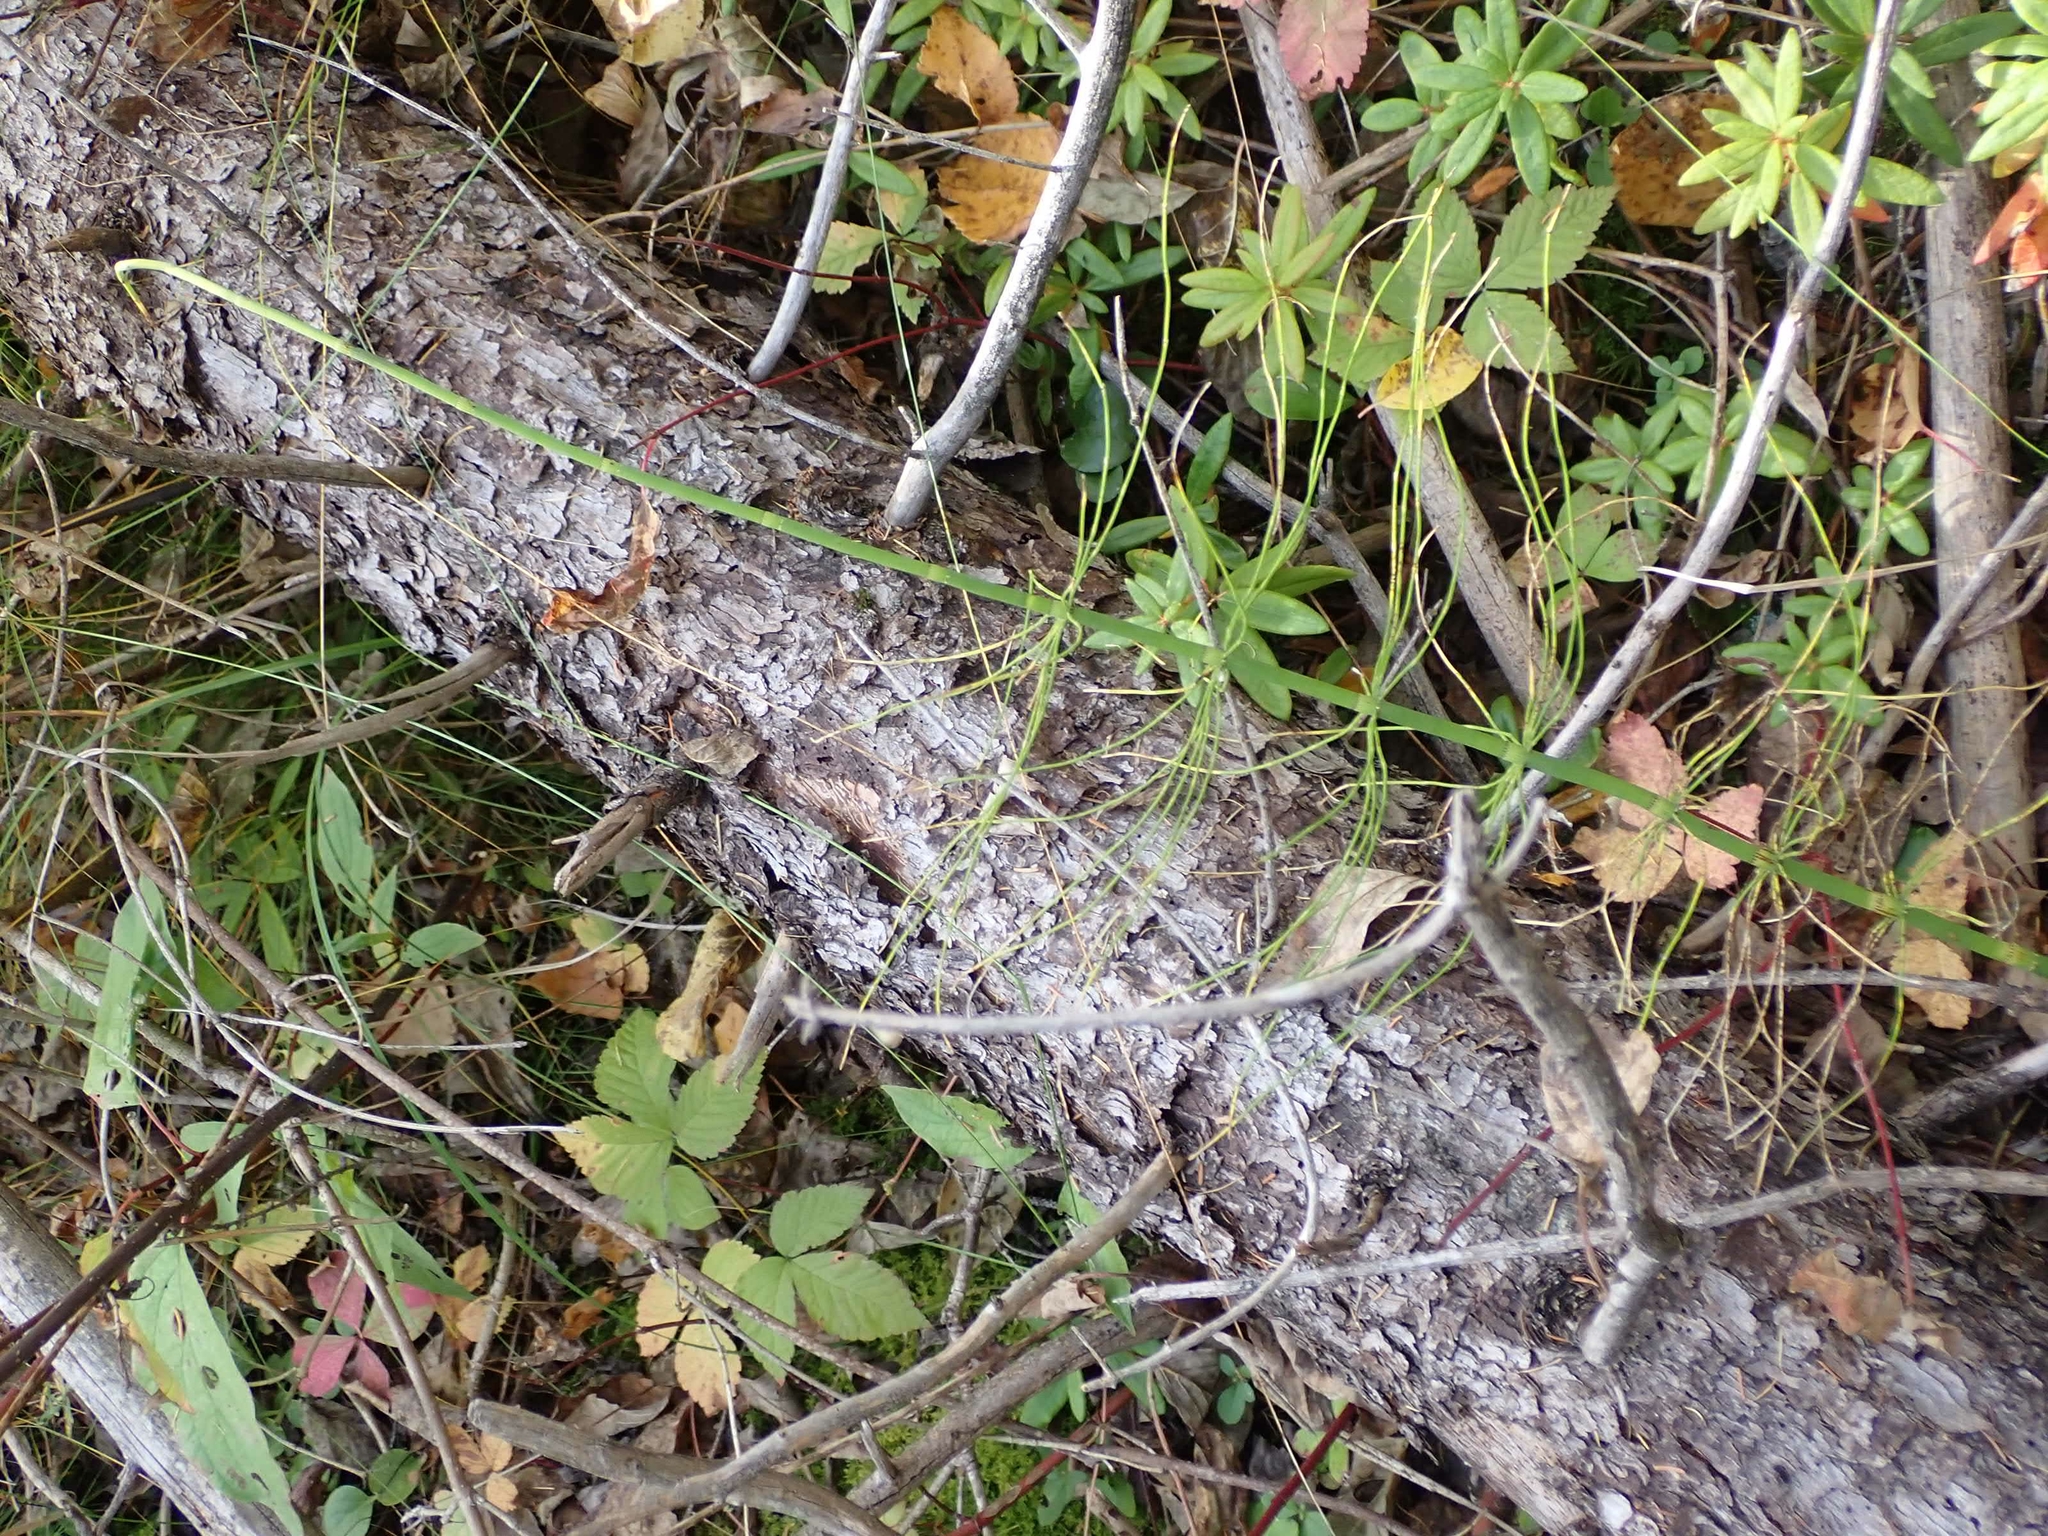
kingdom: Plantae
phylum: Tracheophyta
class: Polypodiopsida
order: Equisetales
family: Equisetaceae
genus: Equisetum
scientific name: Equisetum fluviatile
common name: Water horsetail
